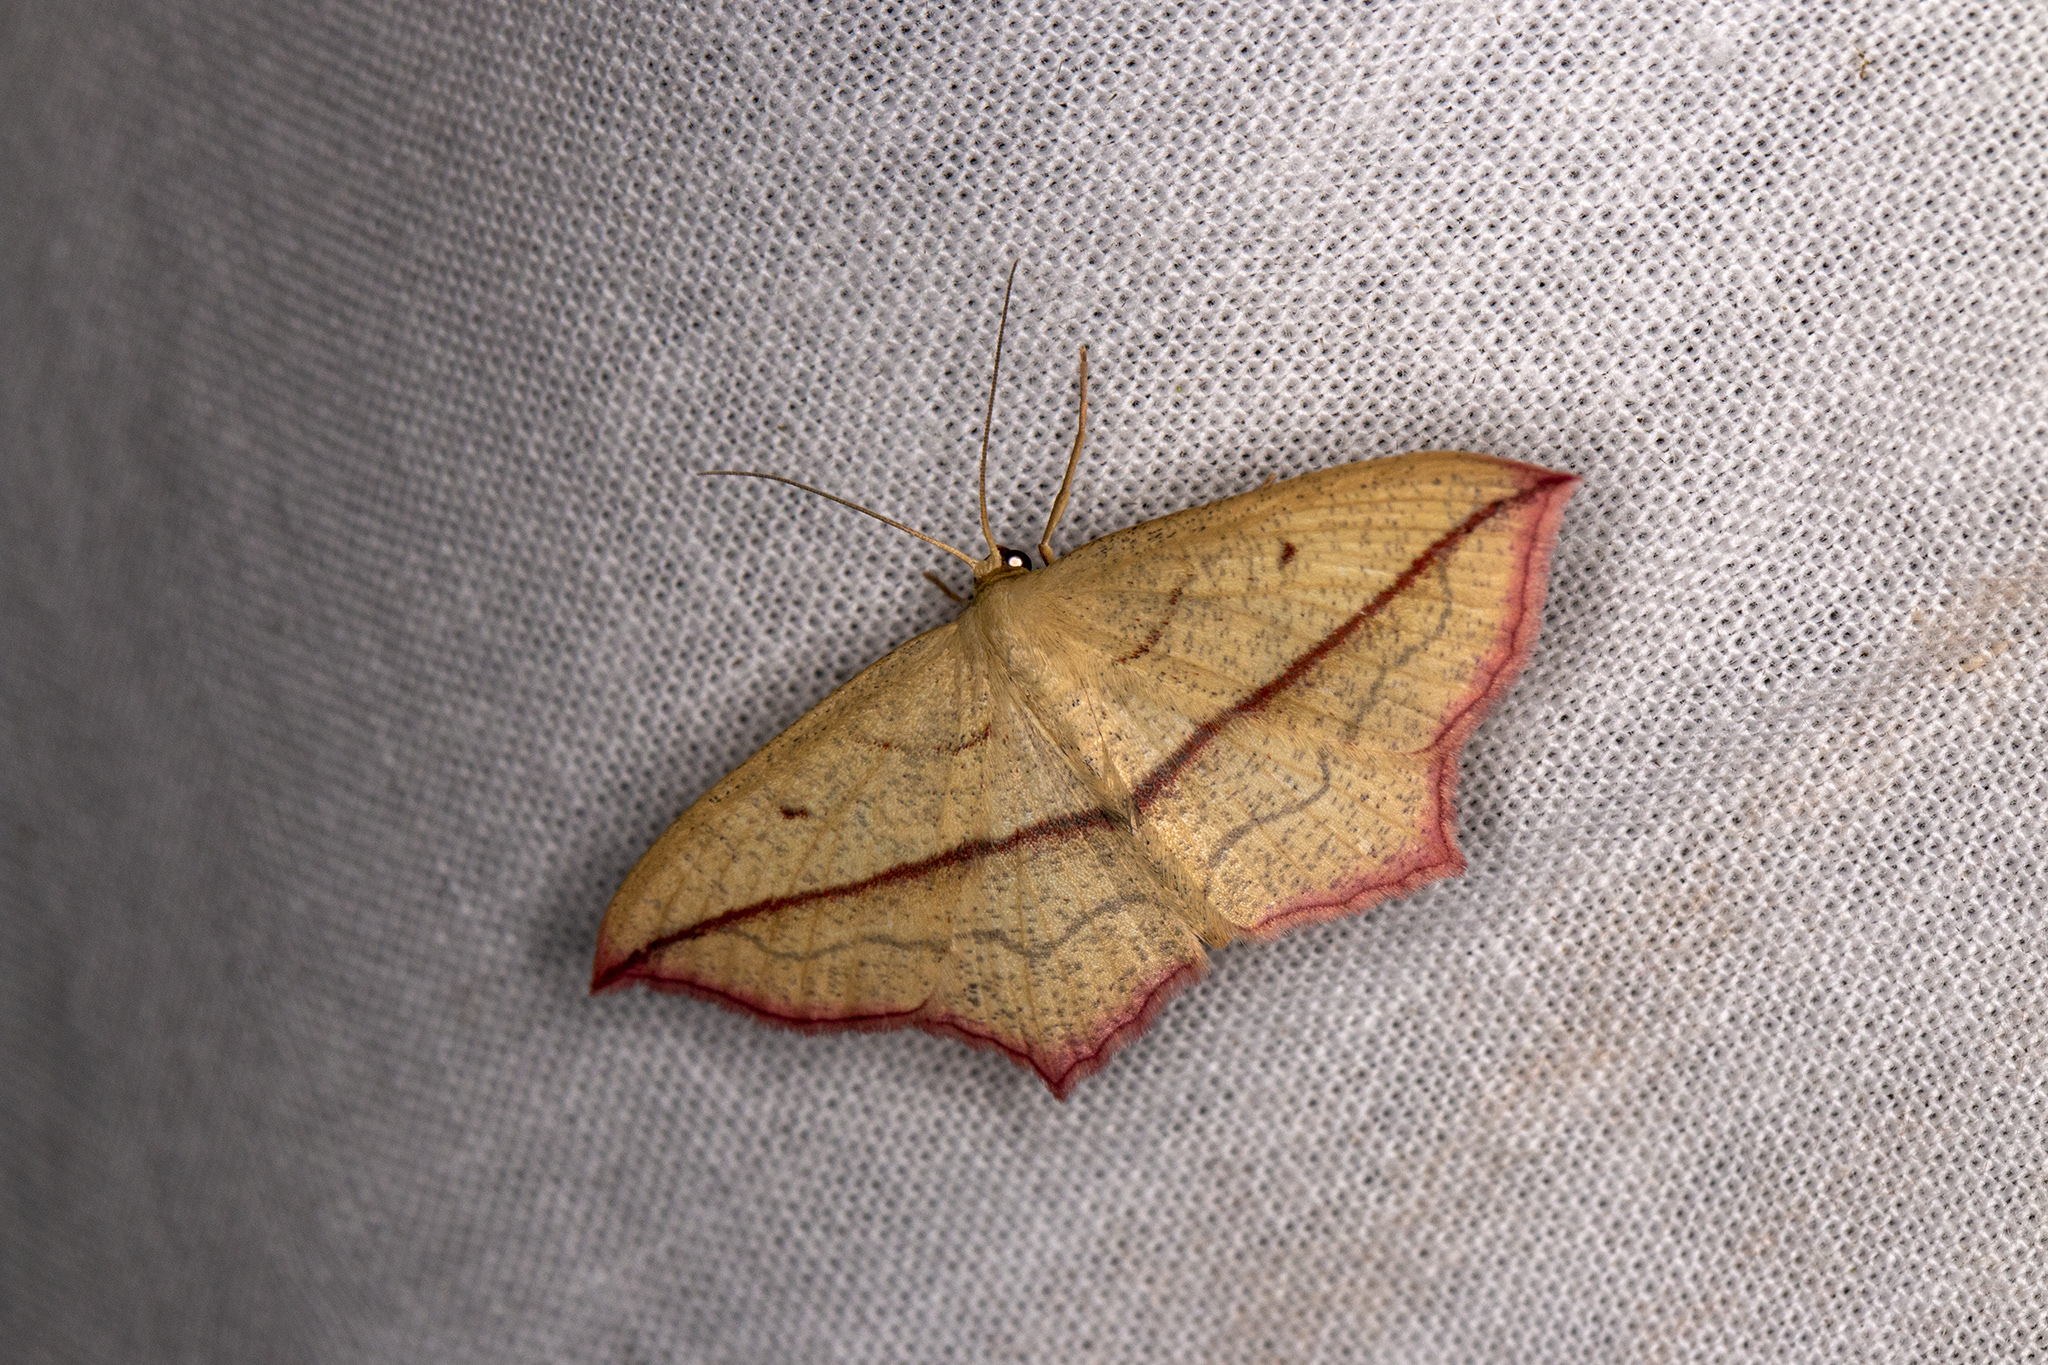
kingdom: Animalia
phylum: Arthropoda
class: Insecta
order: Lepidoptera
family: Geometridae
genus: Timandra
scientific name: Timandra comae
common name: Blood-vein
